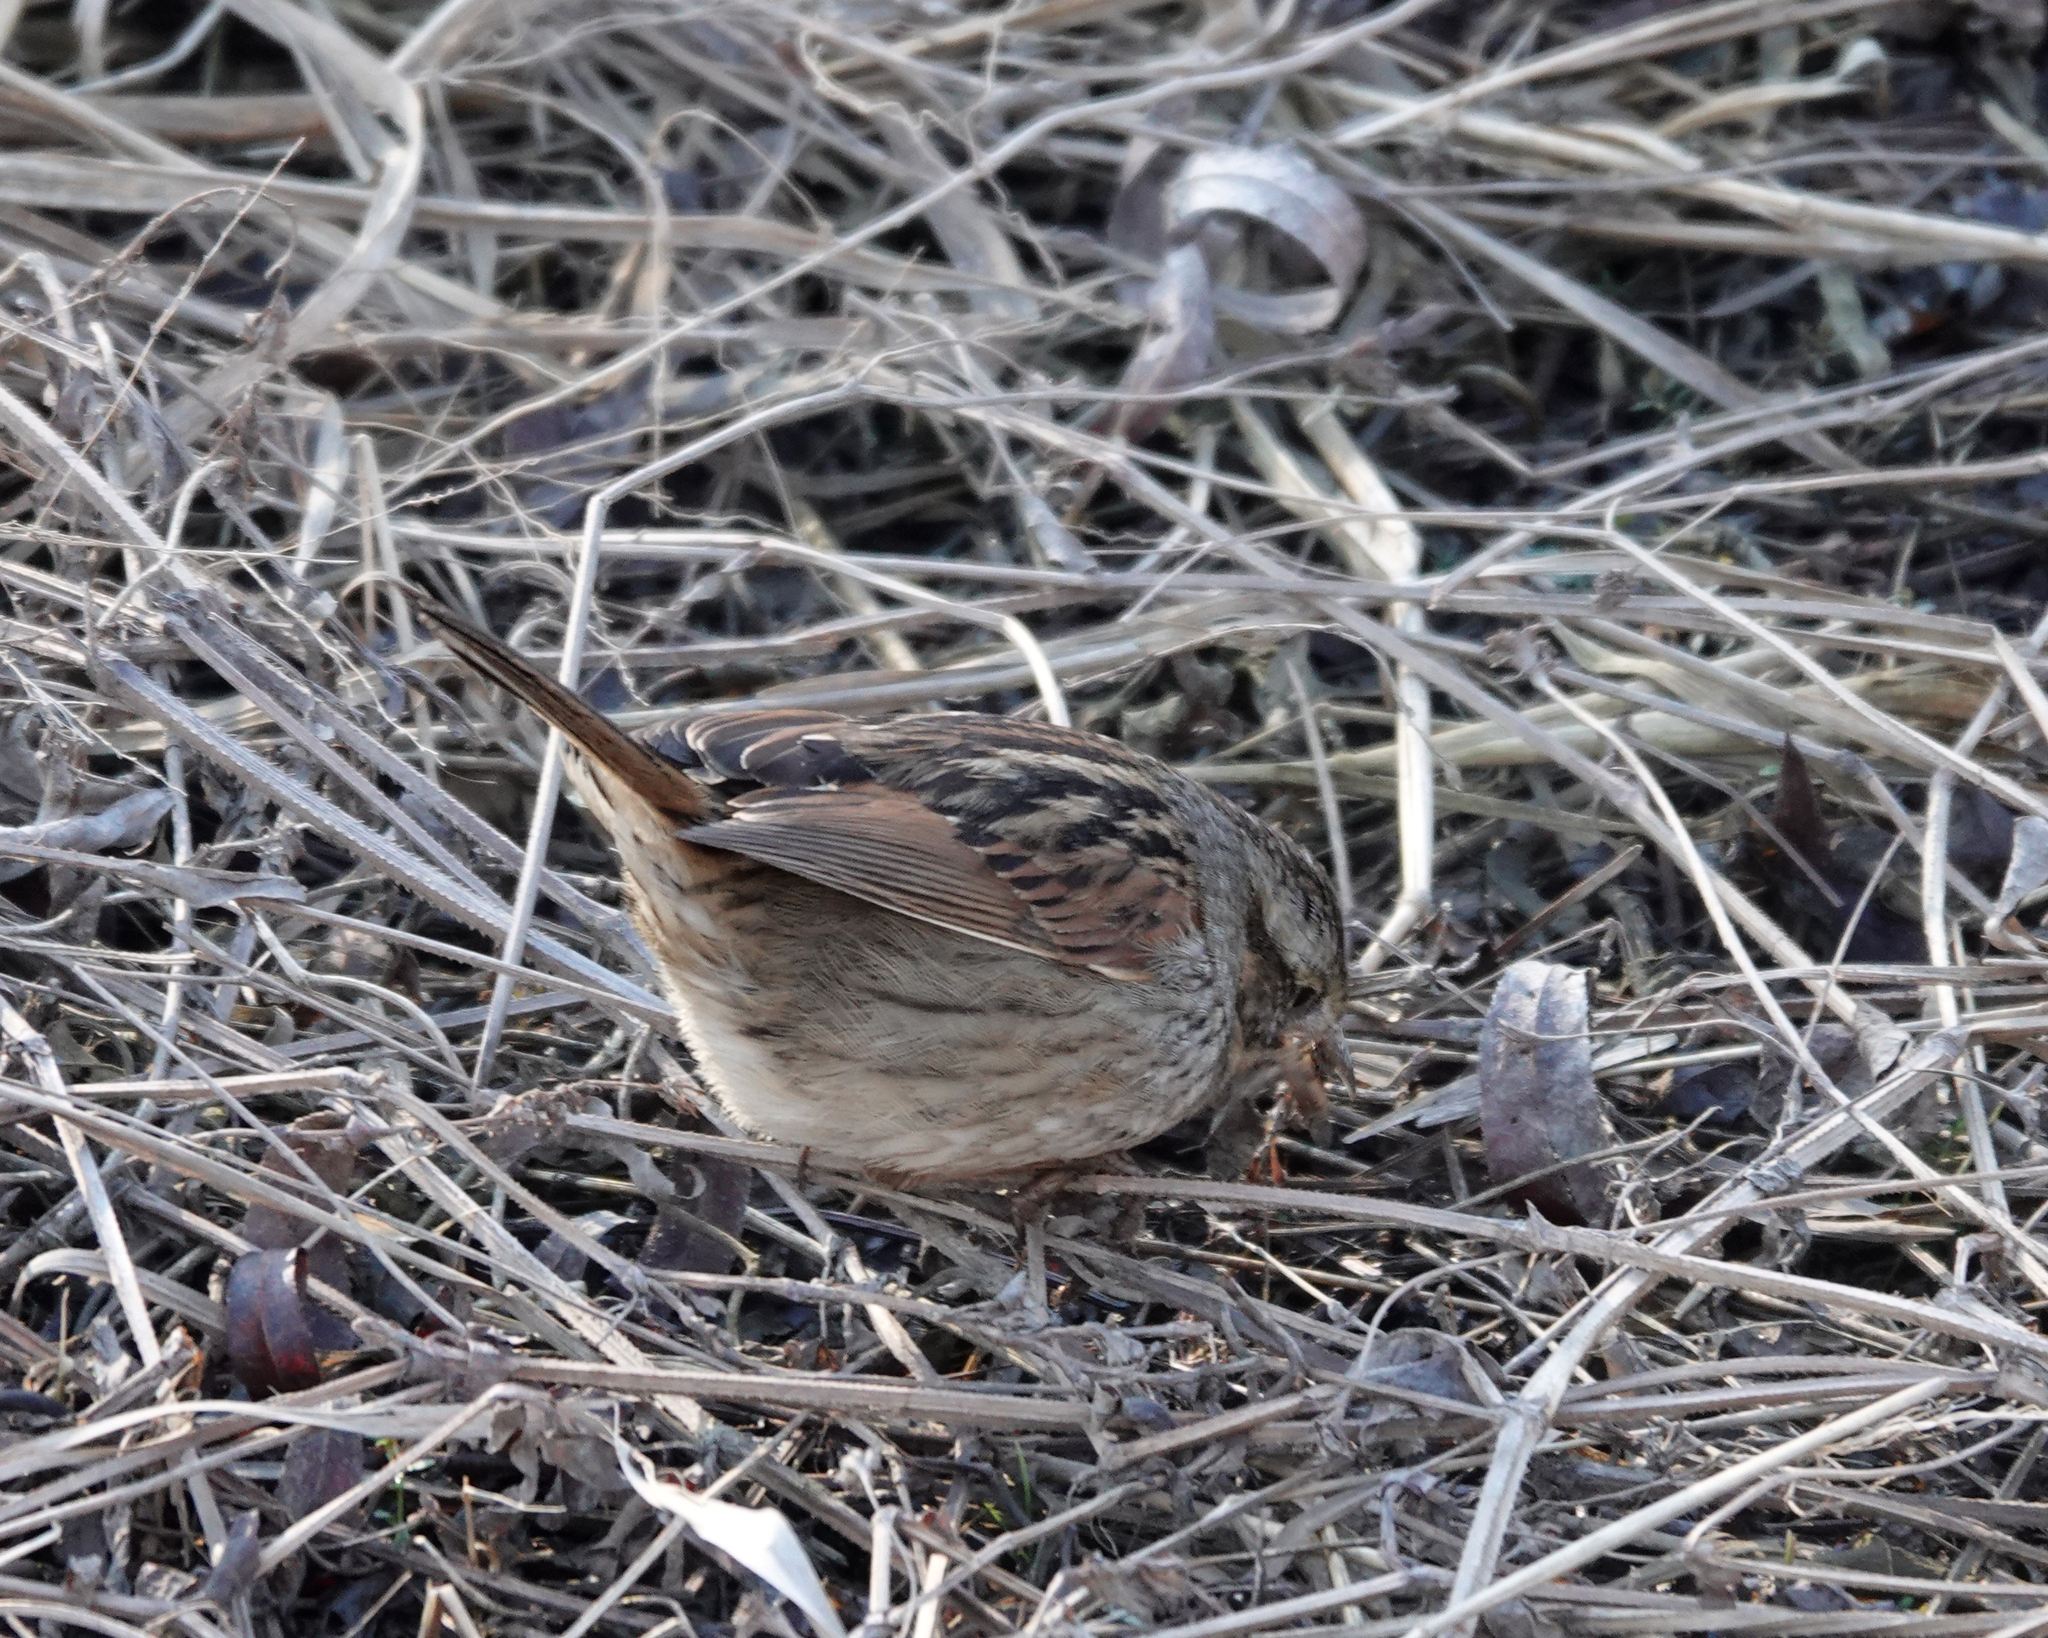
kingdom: Animalia
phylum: Chordata
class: Aves
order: Passeriformes
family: Passerellidae
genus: Melospiza
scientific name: Melospiza georgiana
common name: Swamp sparrow
